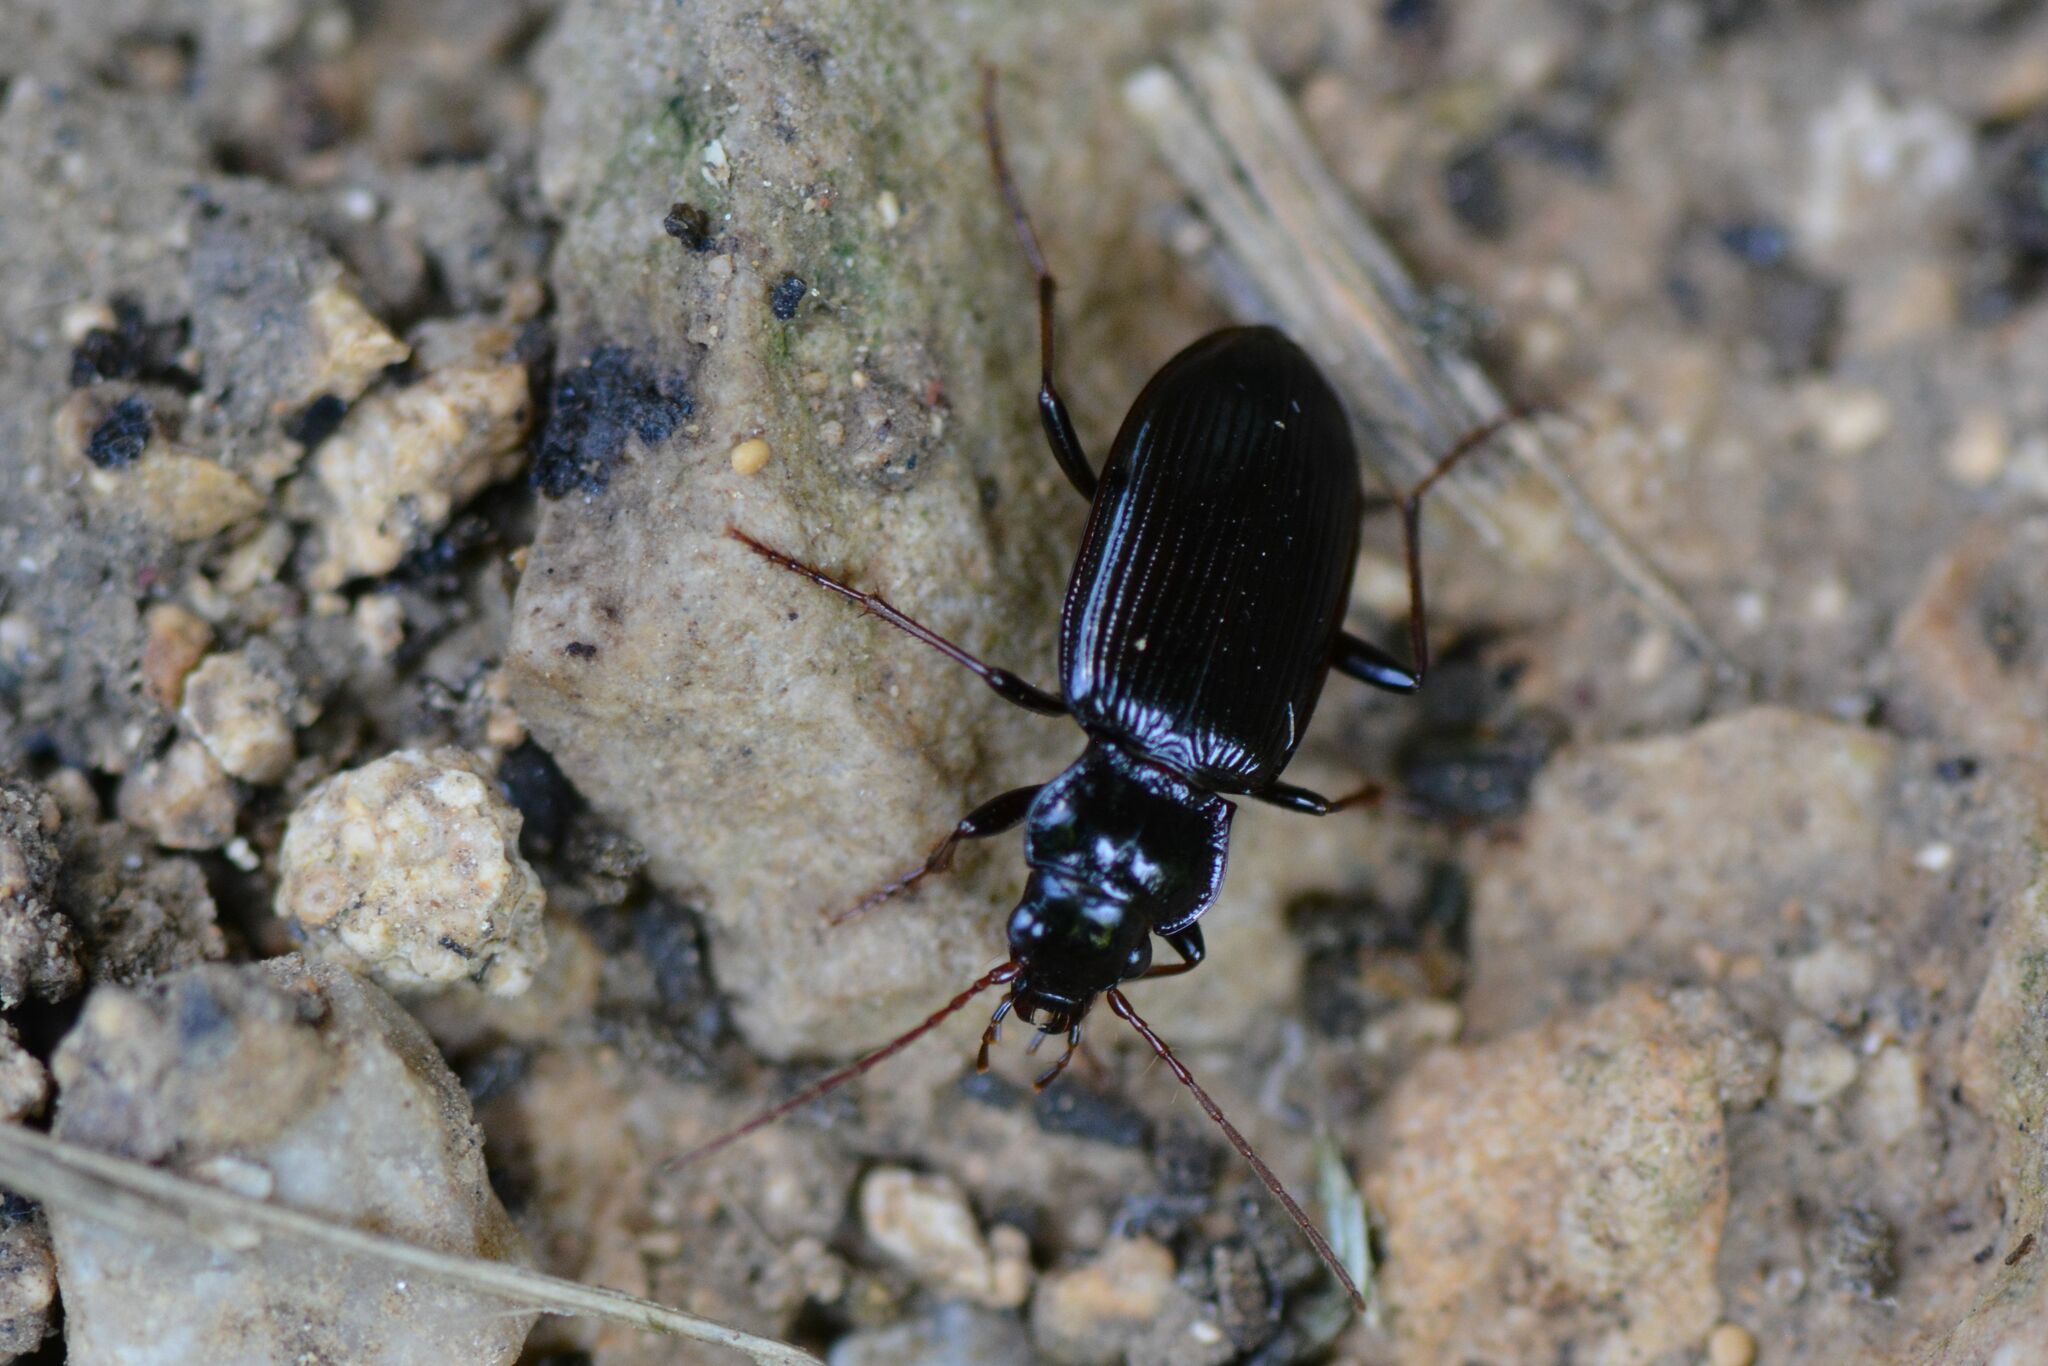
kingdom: Animalia
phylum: Arthropoda
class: Insecta
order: Coleoptera
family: Carabidae
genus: Nebria
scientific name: Nebria salina
